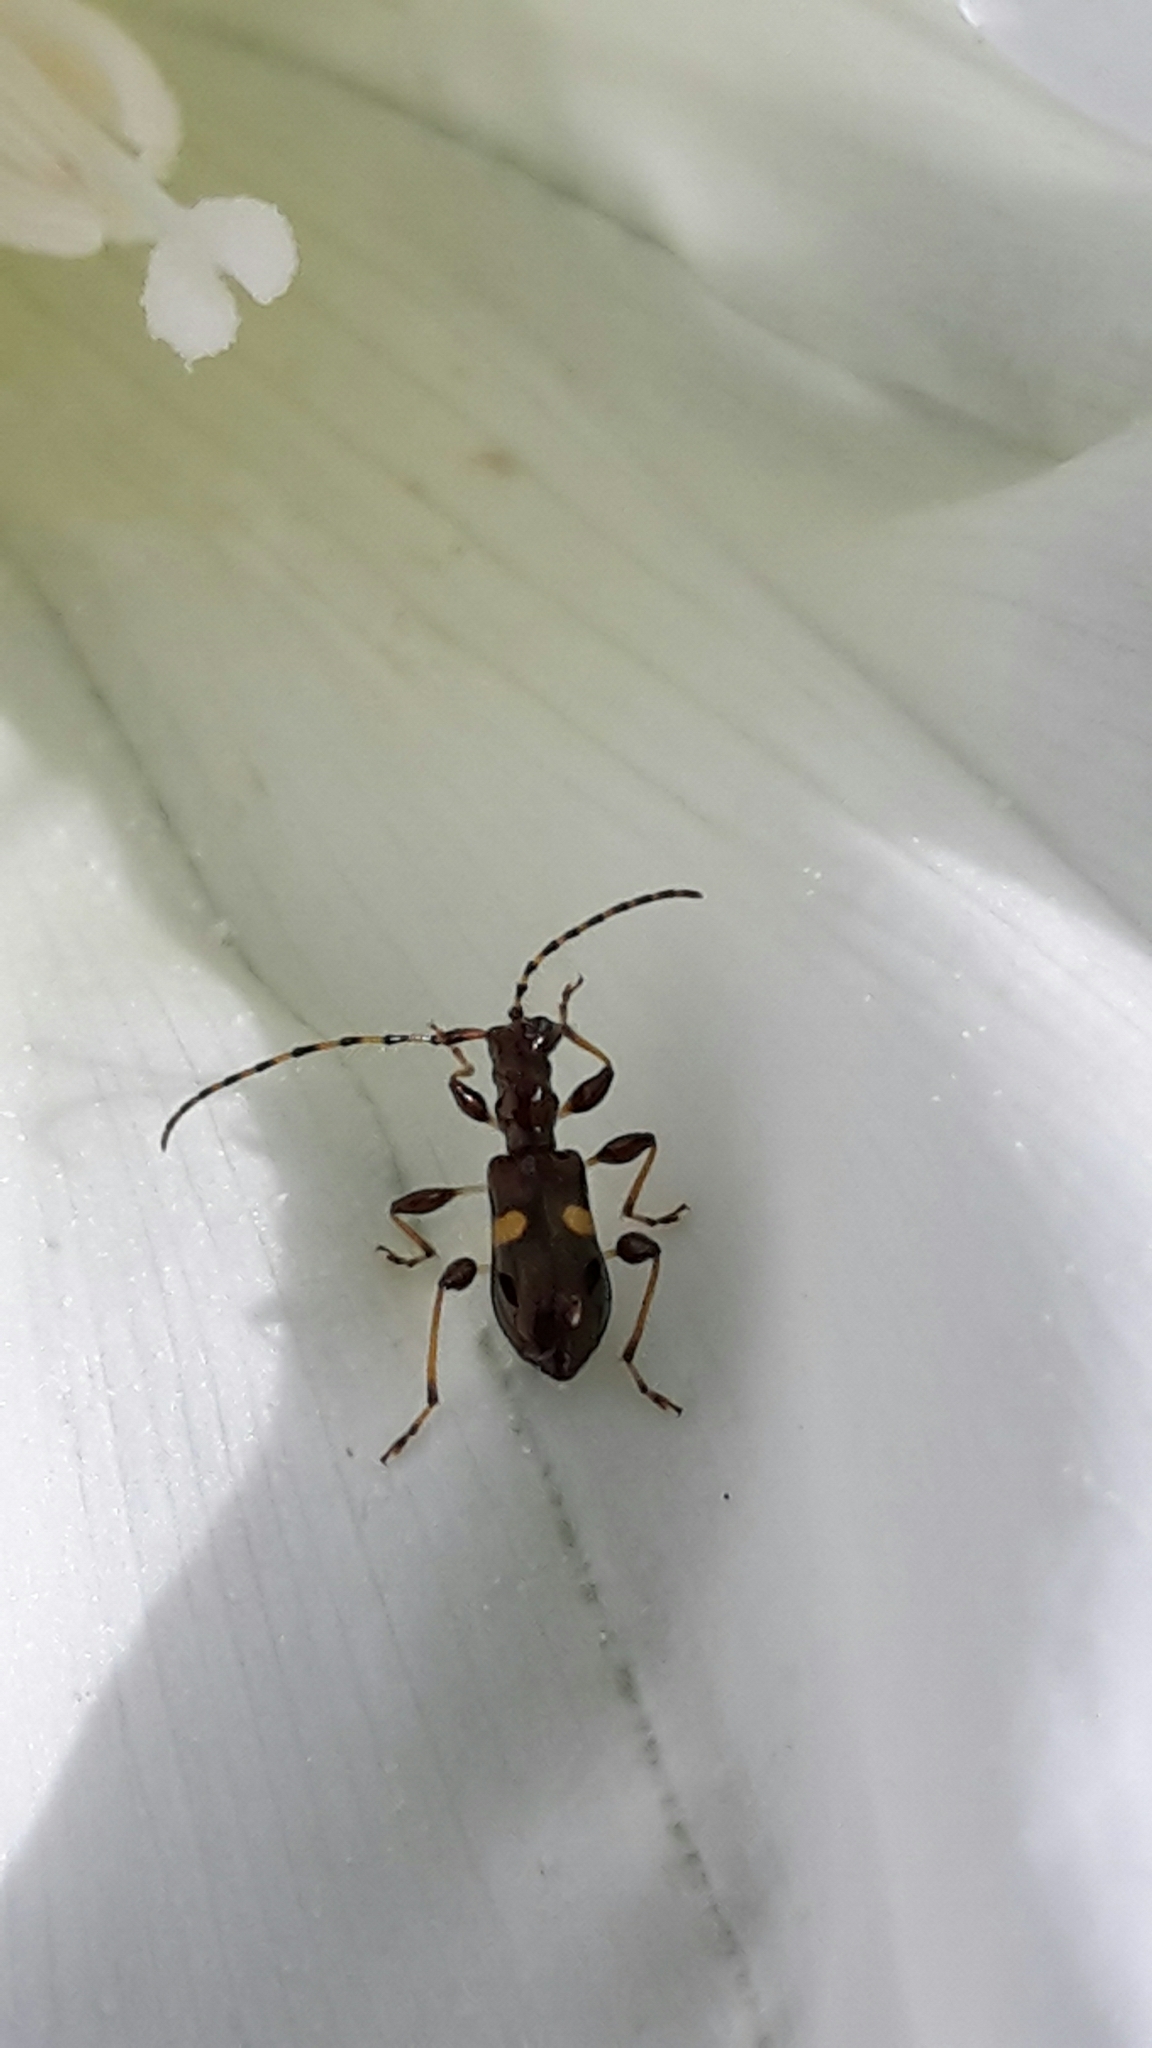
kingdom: Animalia
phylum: Arthropoda
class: Insecta
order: Coleoptera
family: Cerambycidae
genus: Zorion
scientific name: Zorion guttigerum
